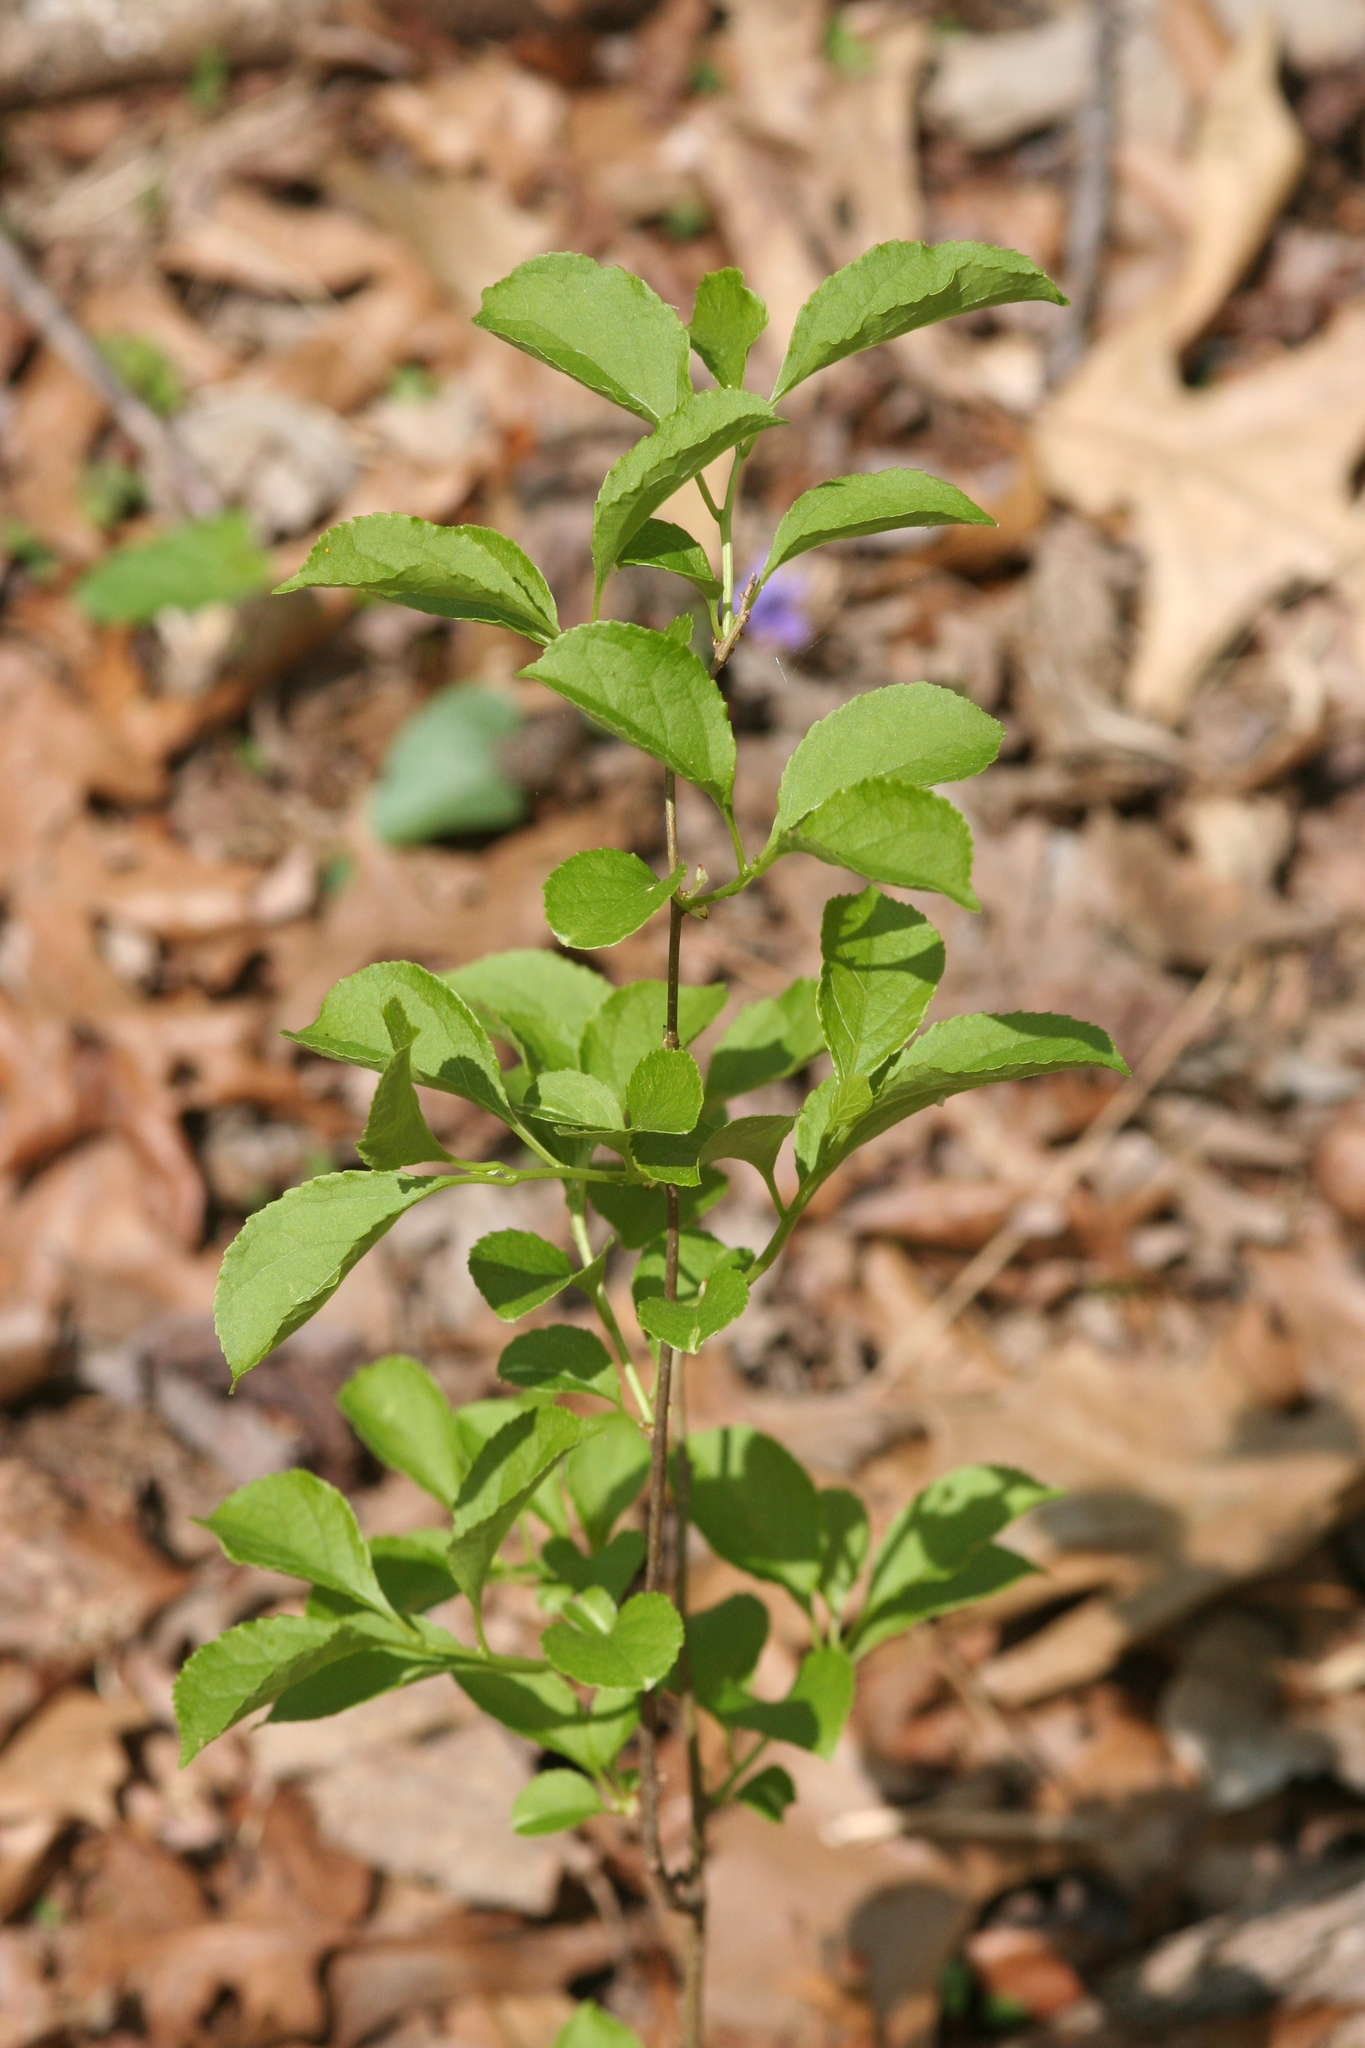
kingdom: Plantae
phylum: Tracheophyta
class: Magnoliopsida
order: Celastrales
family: Celastraceae
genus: Celastrus
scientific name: Celastrus orbiculatus
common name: Oriental bittersweet
